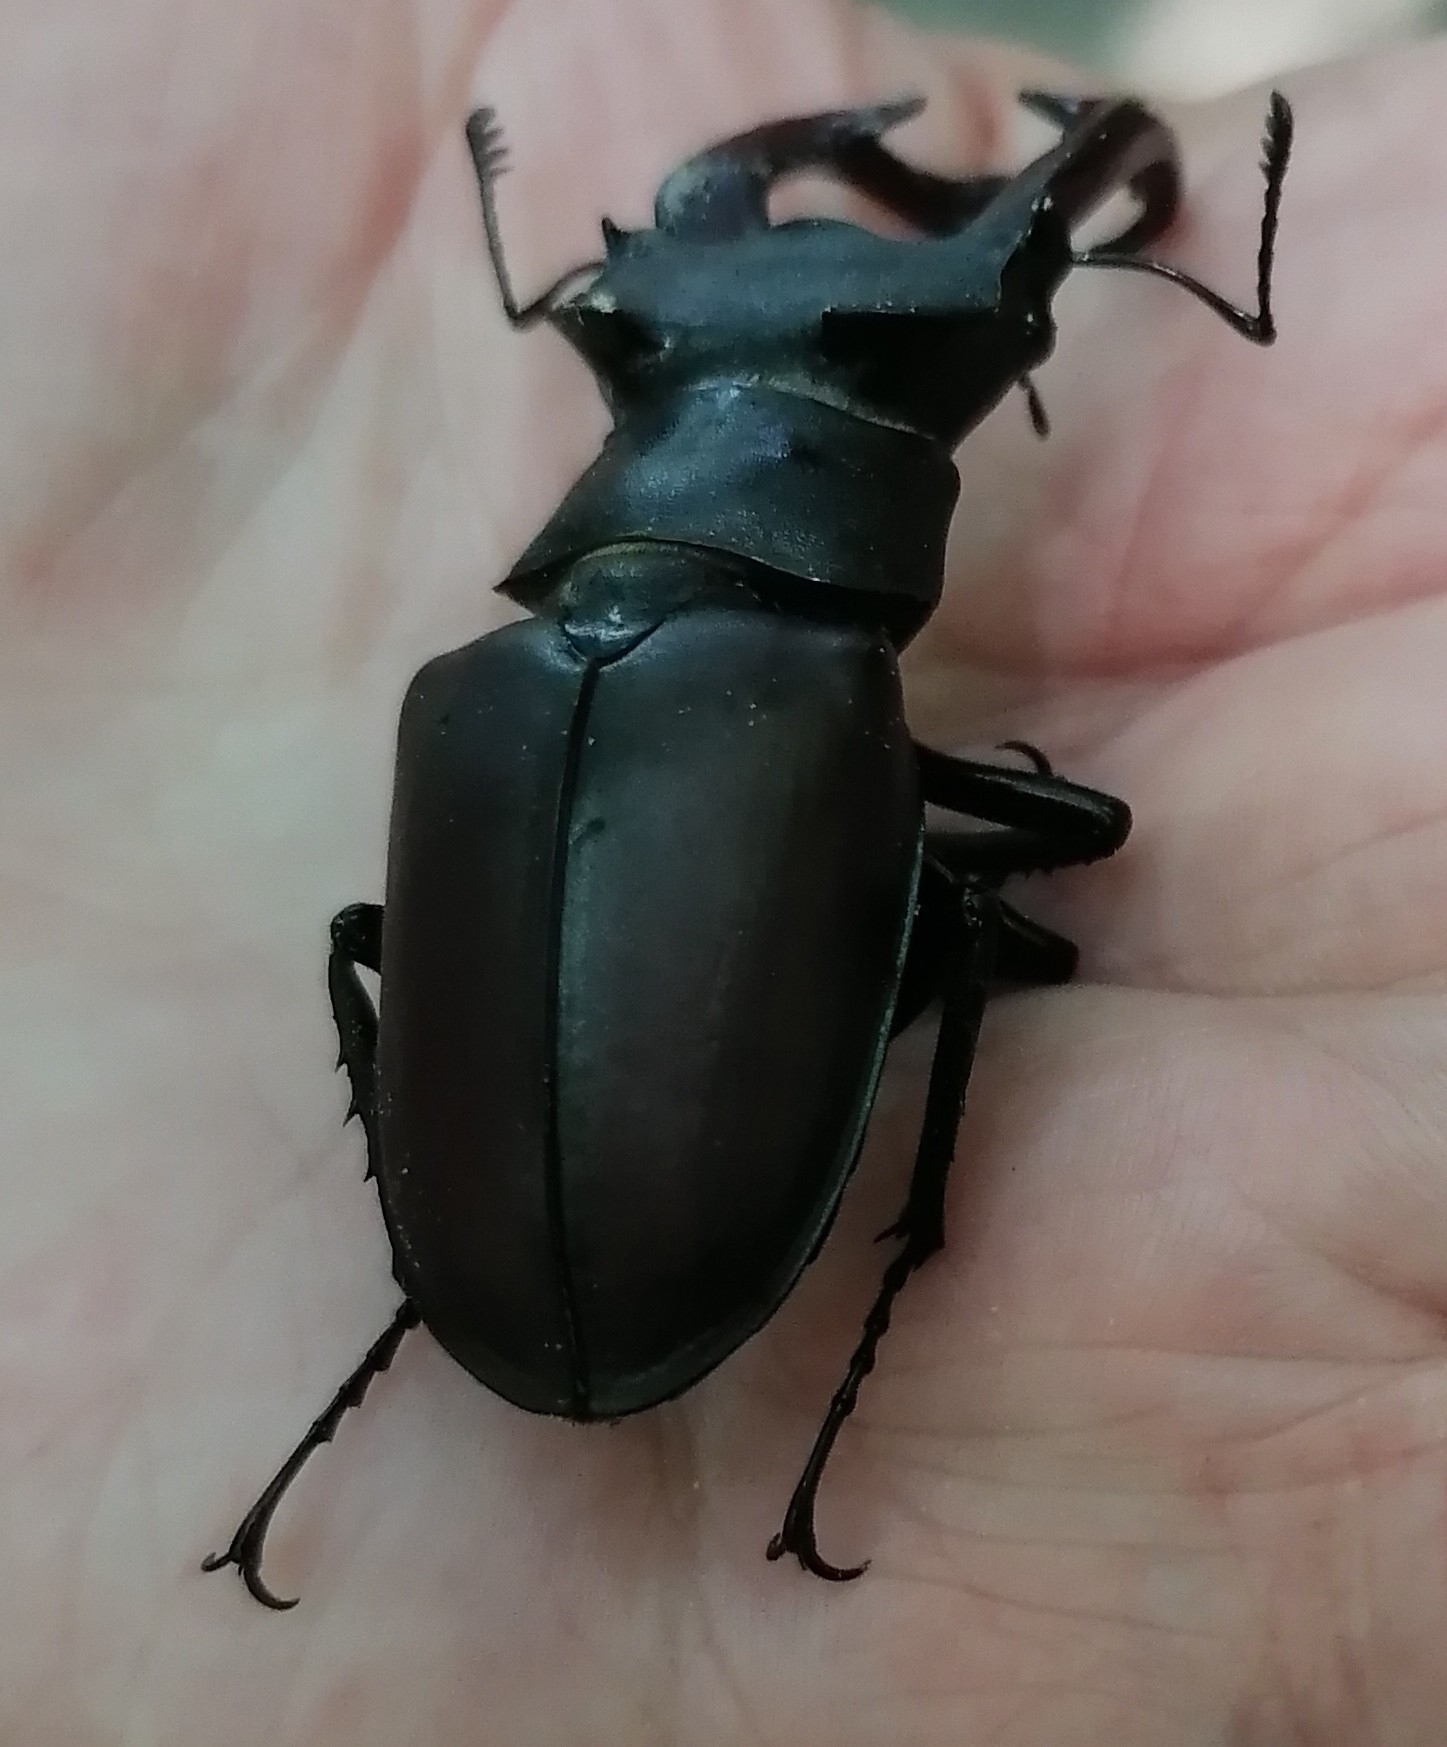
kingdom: Animalia
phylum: Arthropoda
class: Insecta
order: Coleoptera
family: Lucanidae
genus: Lucanus
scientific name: Lucanus cervus
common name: Stag beetle
